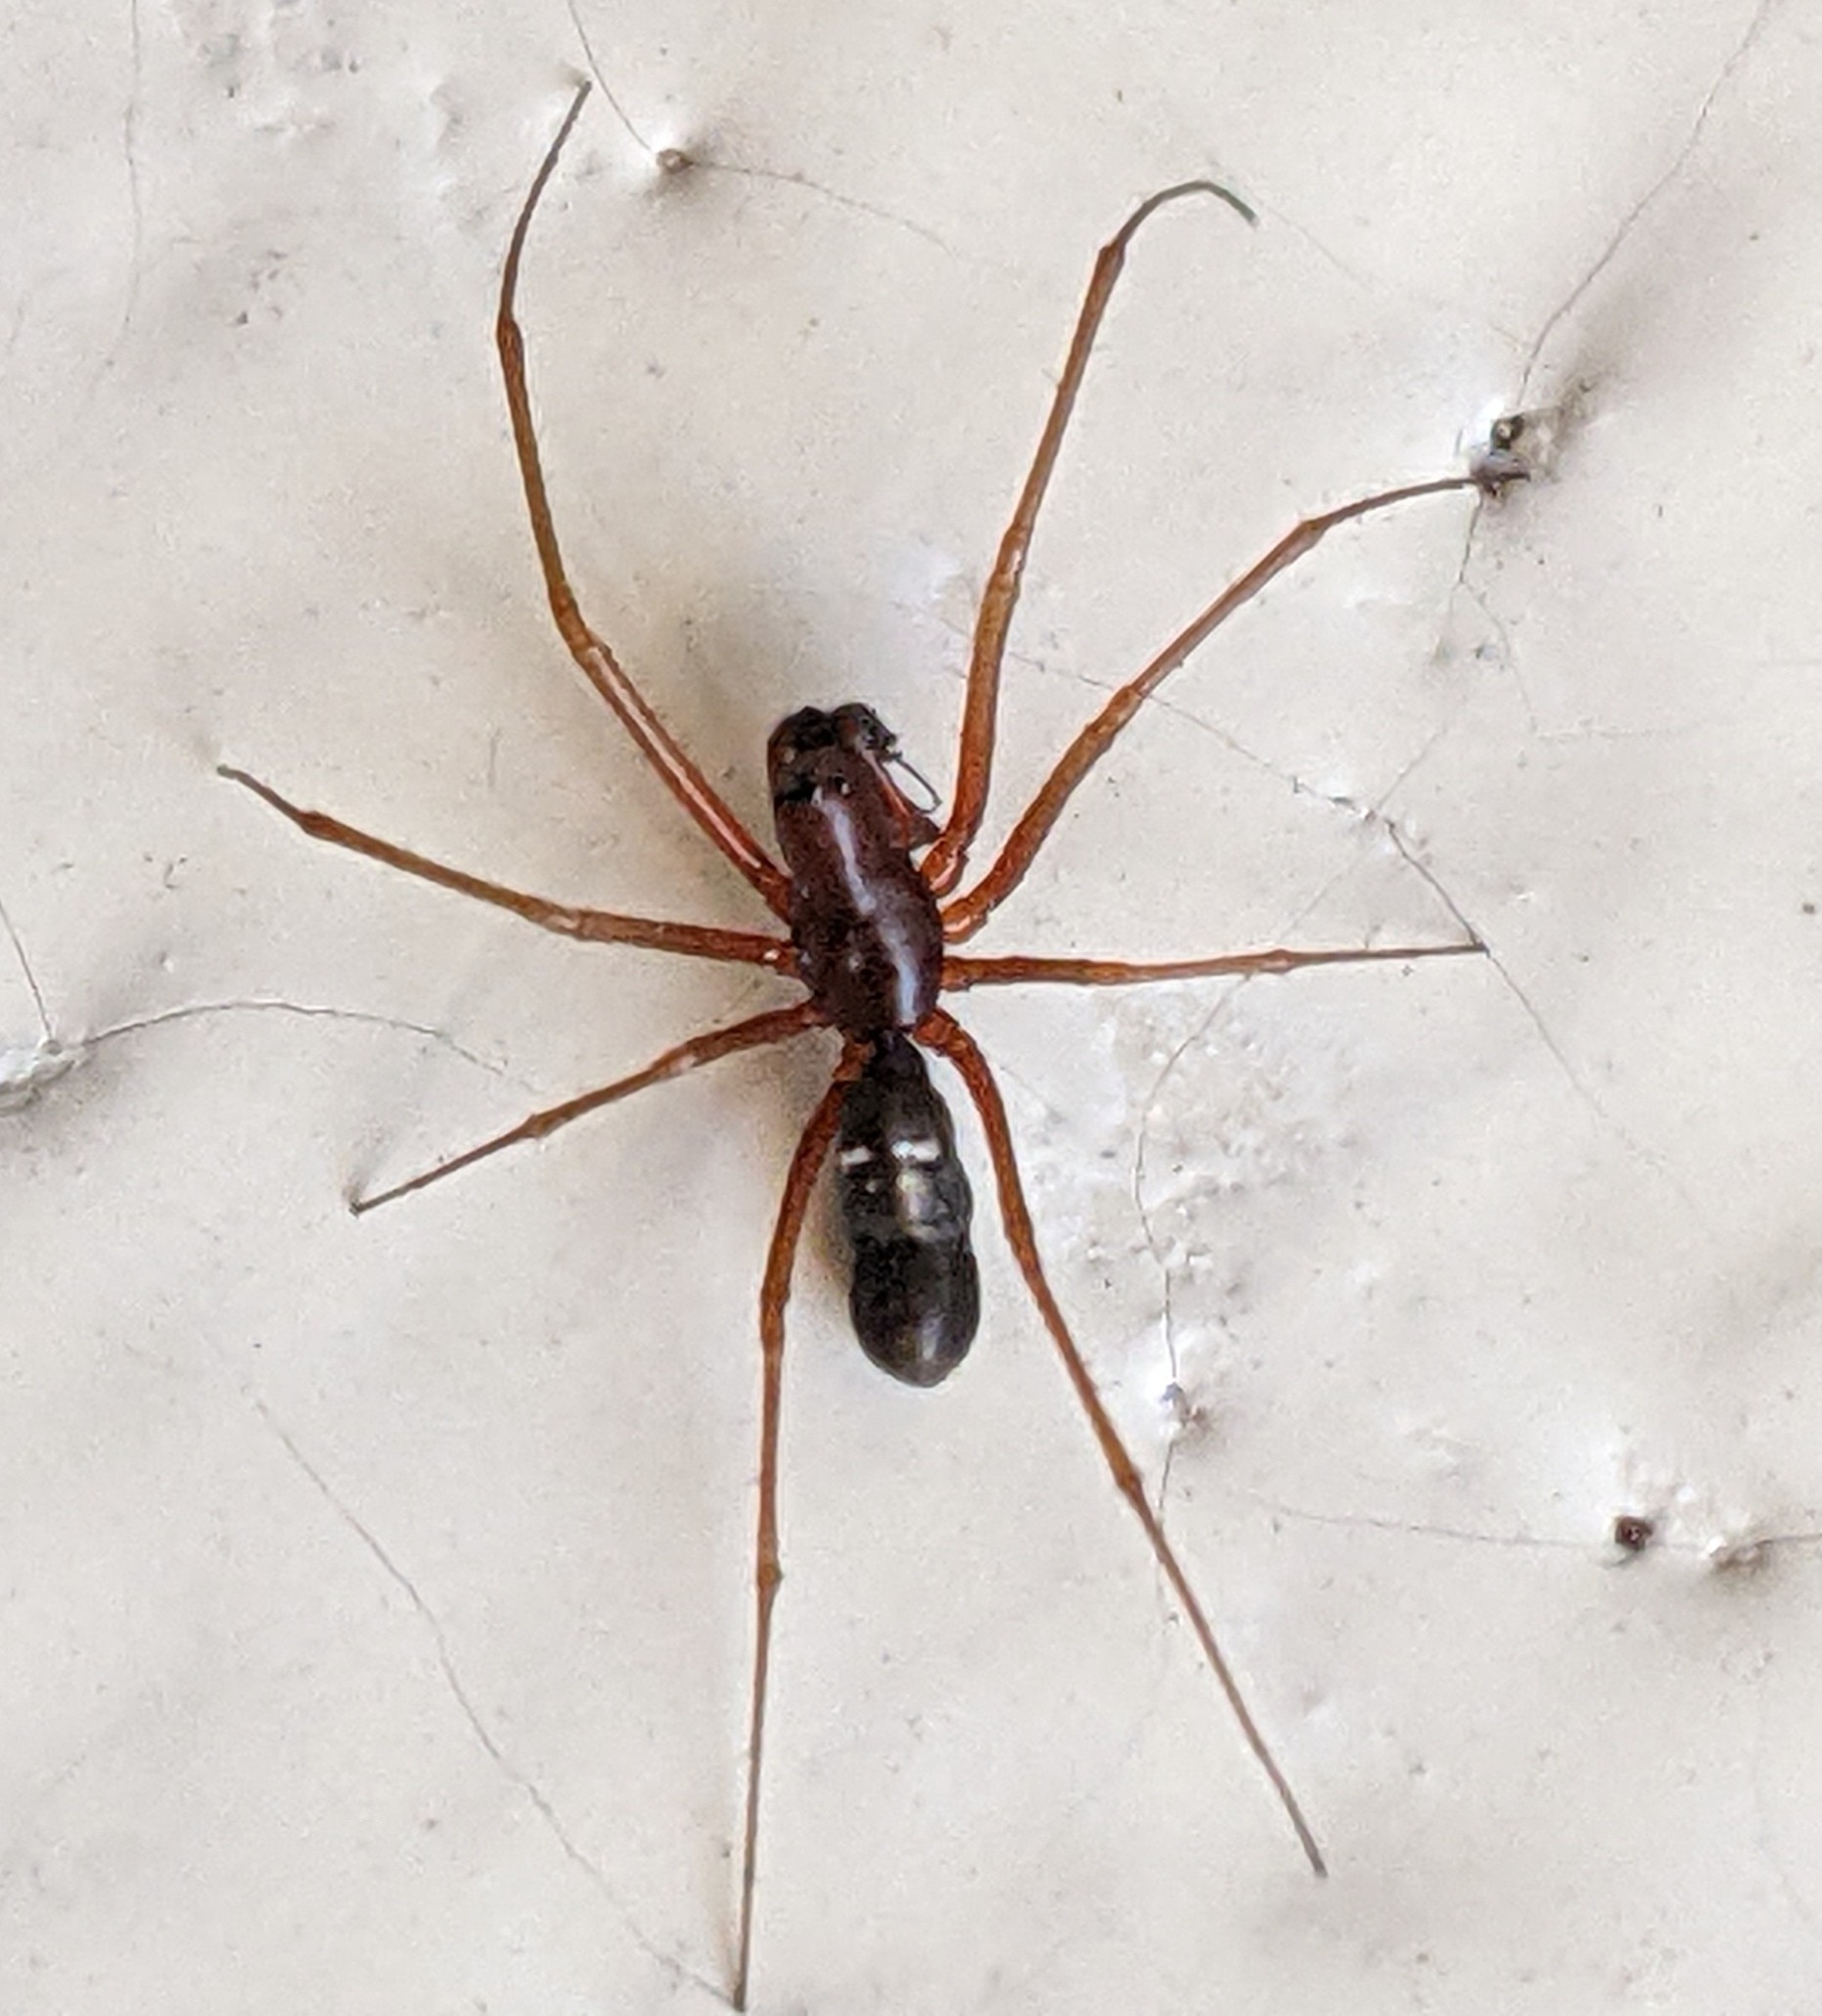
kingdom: Animalia
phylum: Arthropoda
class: Arachnida
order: Araneae
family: Linyphiidae
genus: Microlinyphia
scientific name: Microlinyphia mandibulata
